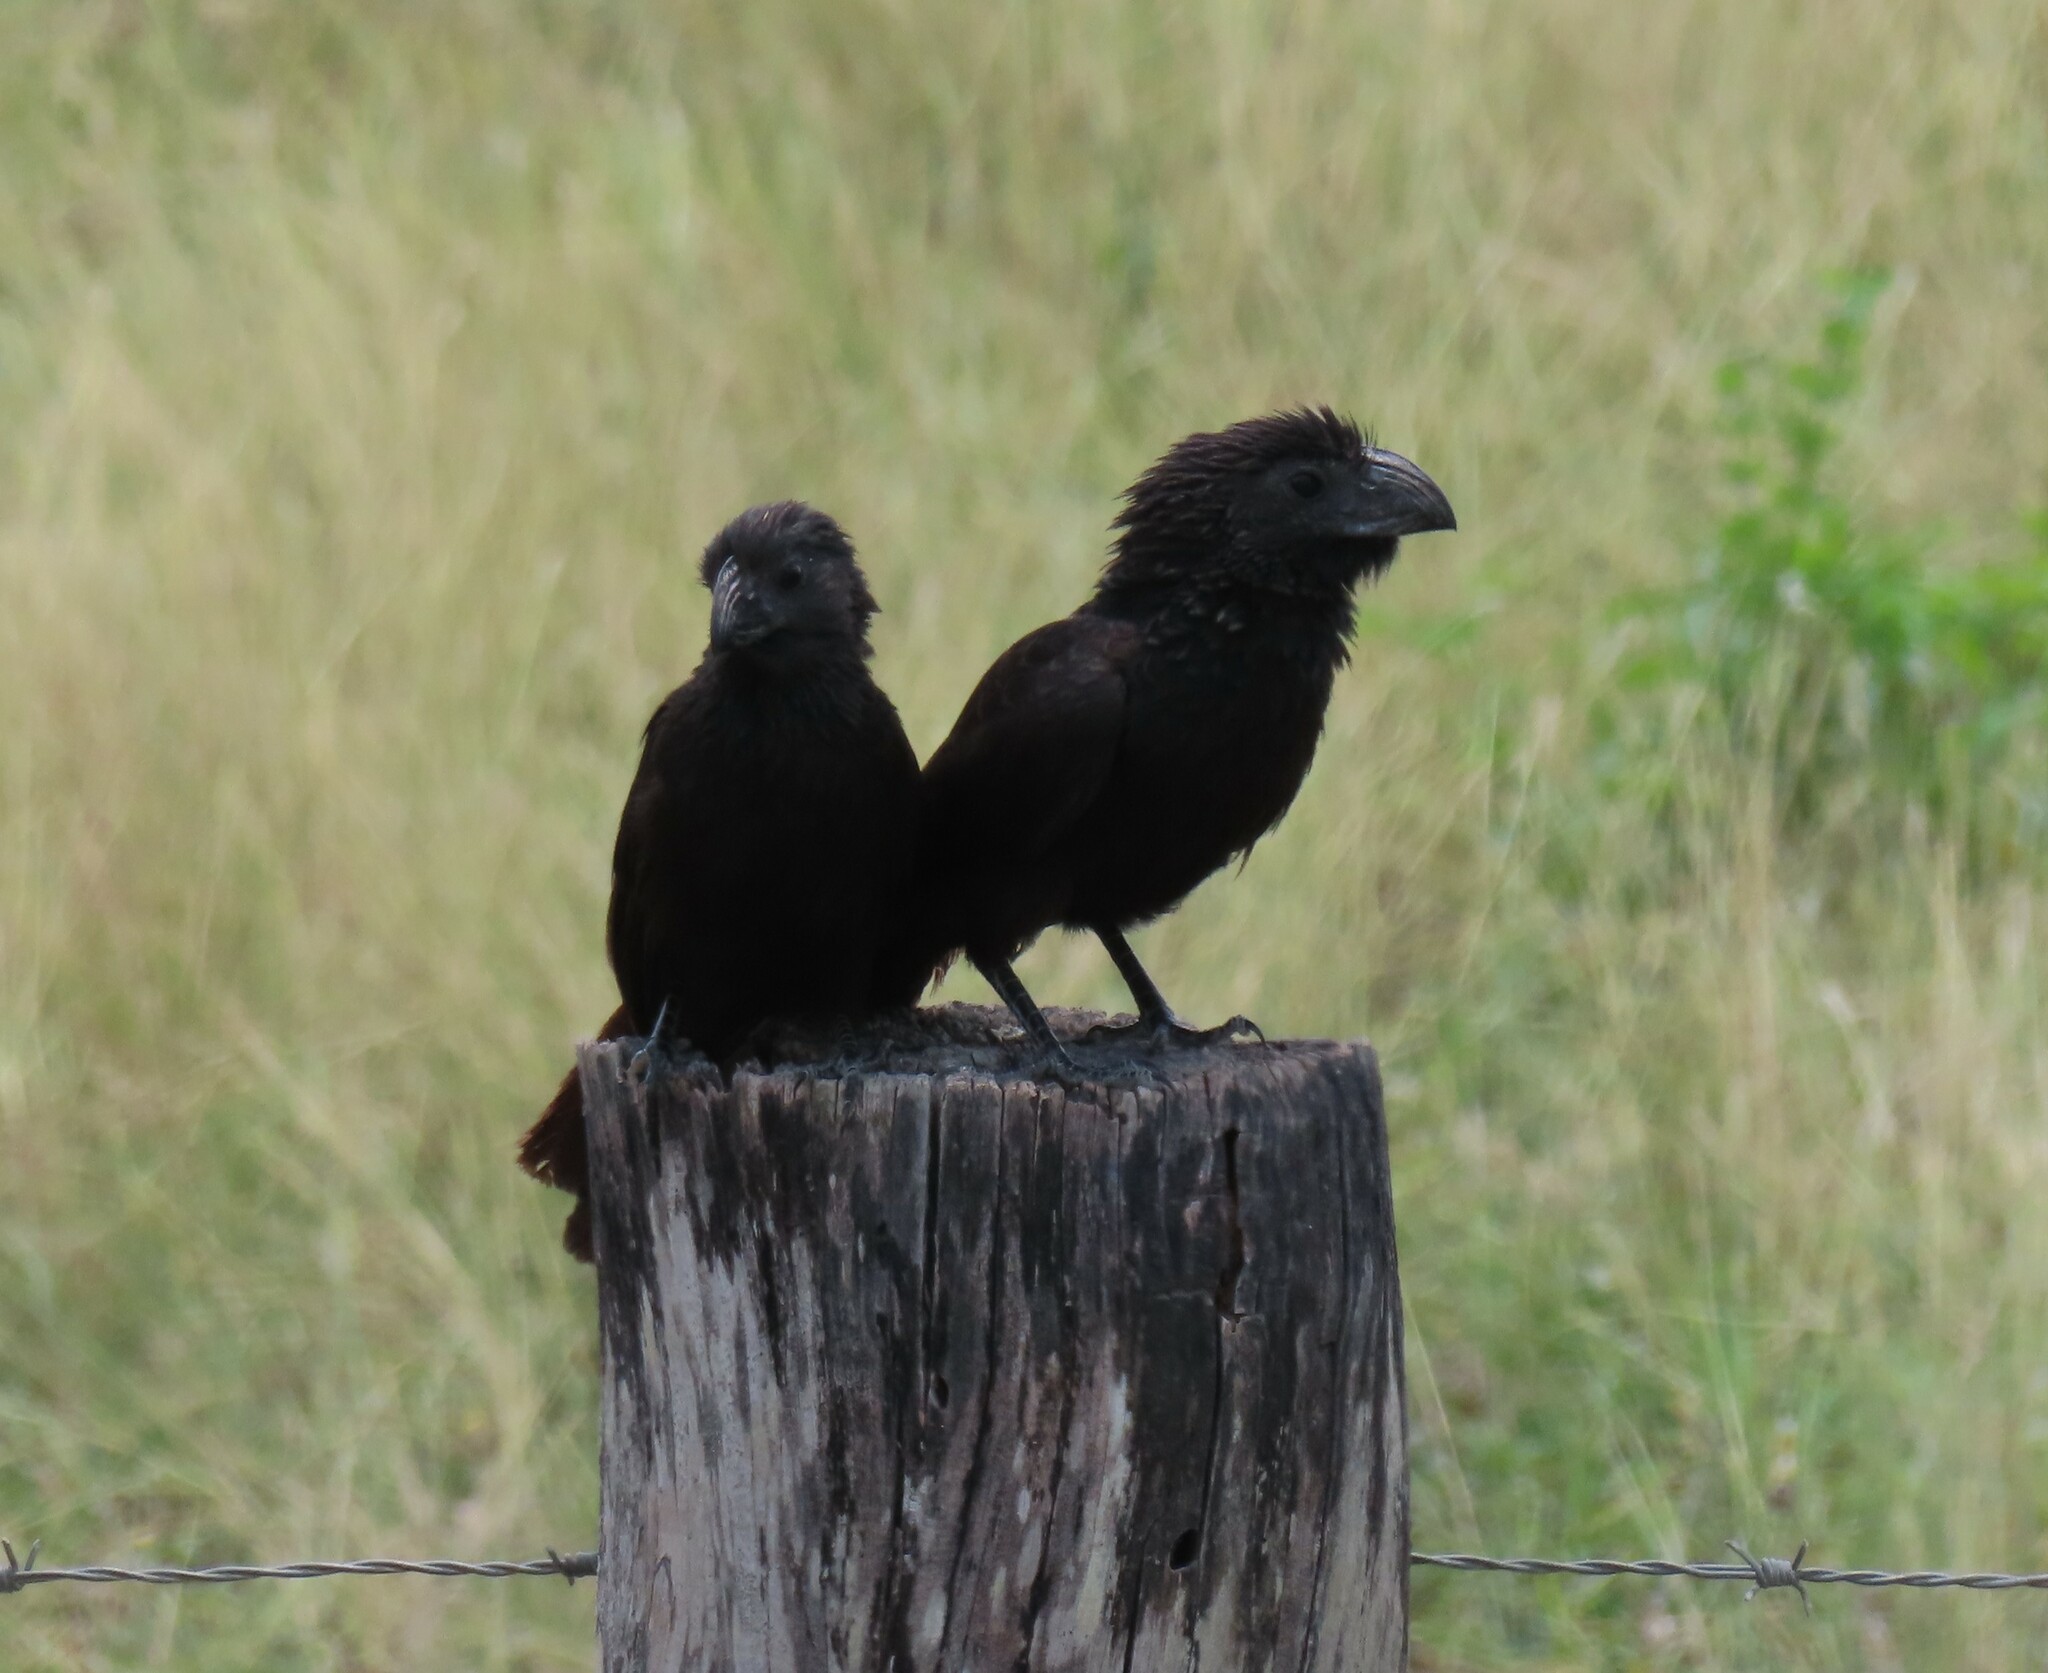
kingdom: Animalia
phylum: Chordata
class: Aves
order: Cuculiformes
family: Cuculidae
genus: Crotophaga
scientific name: Crotophaga sulcirostris
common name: Groove-billed ani
